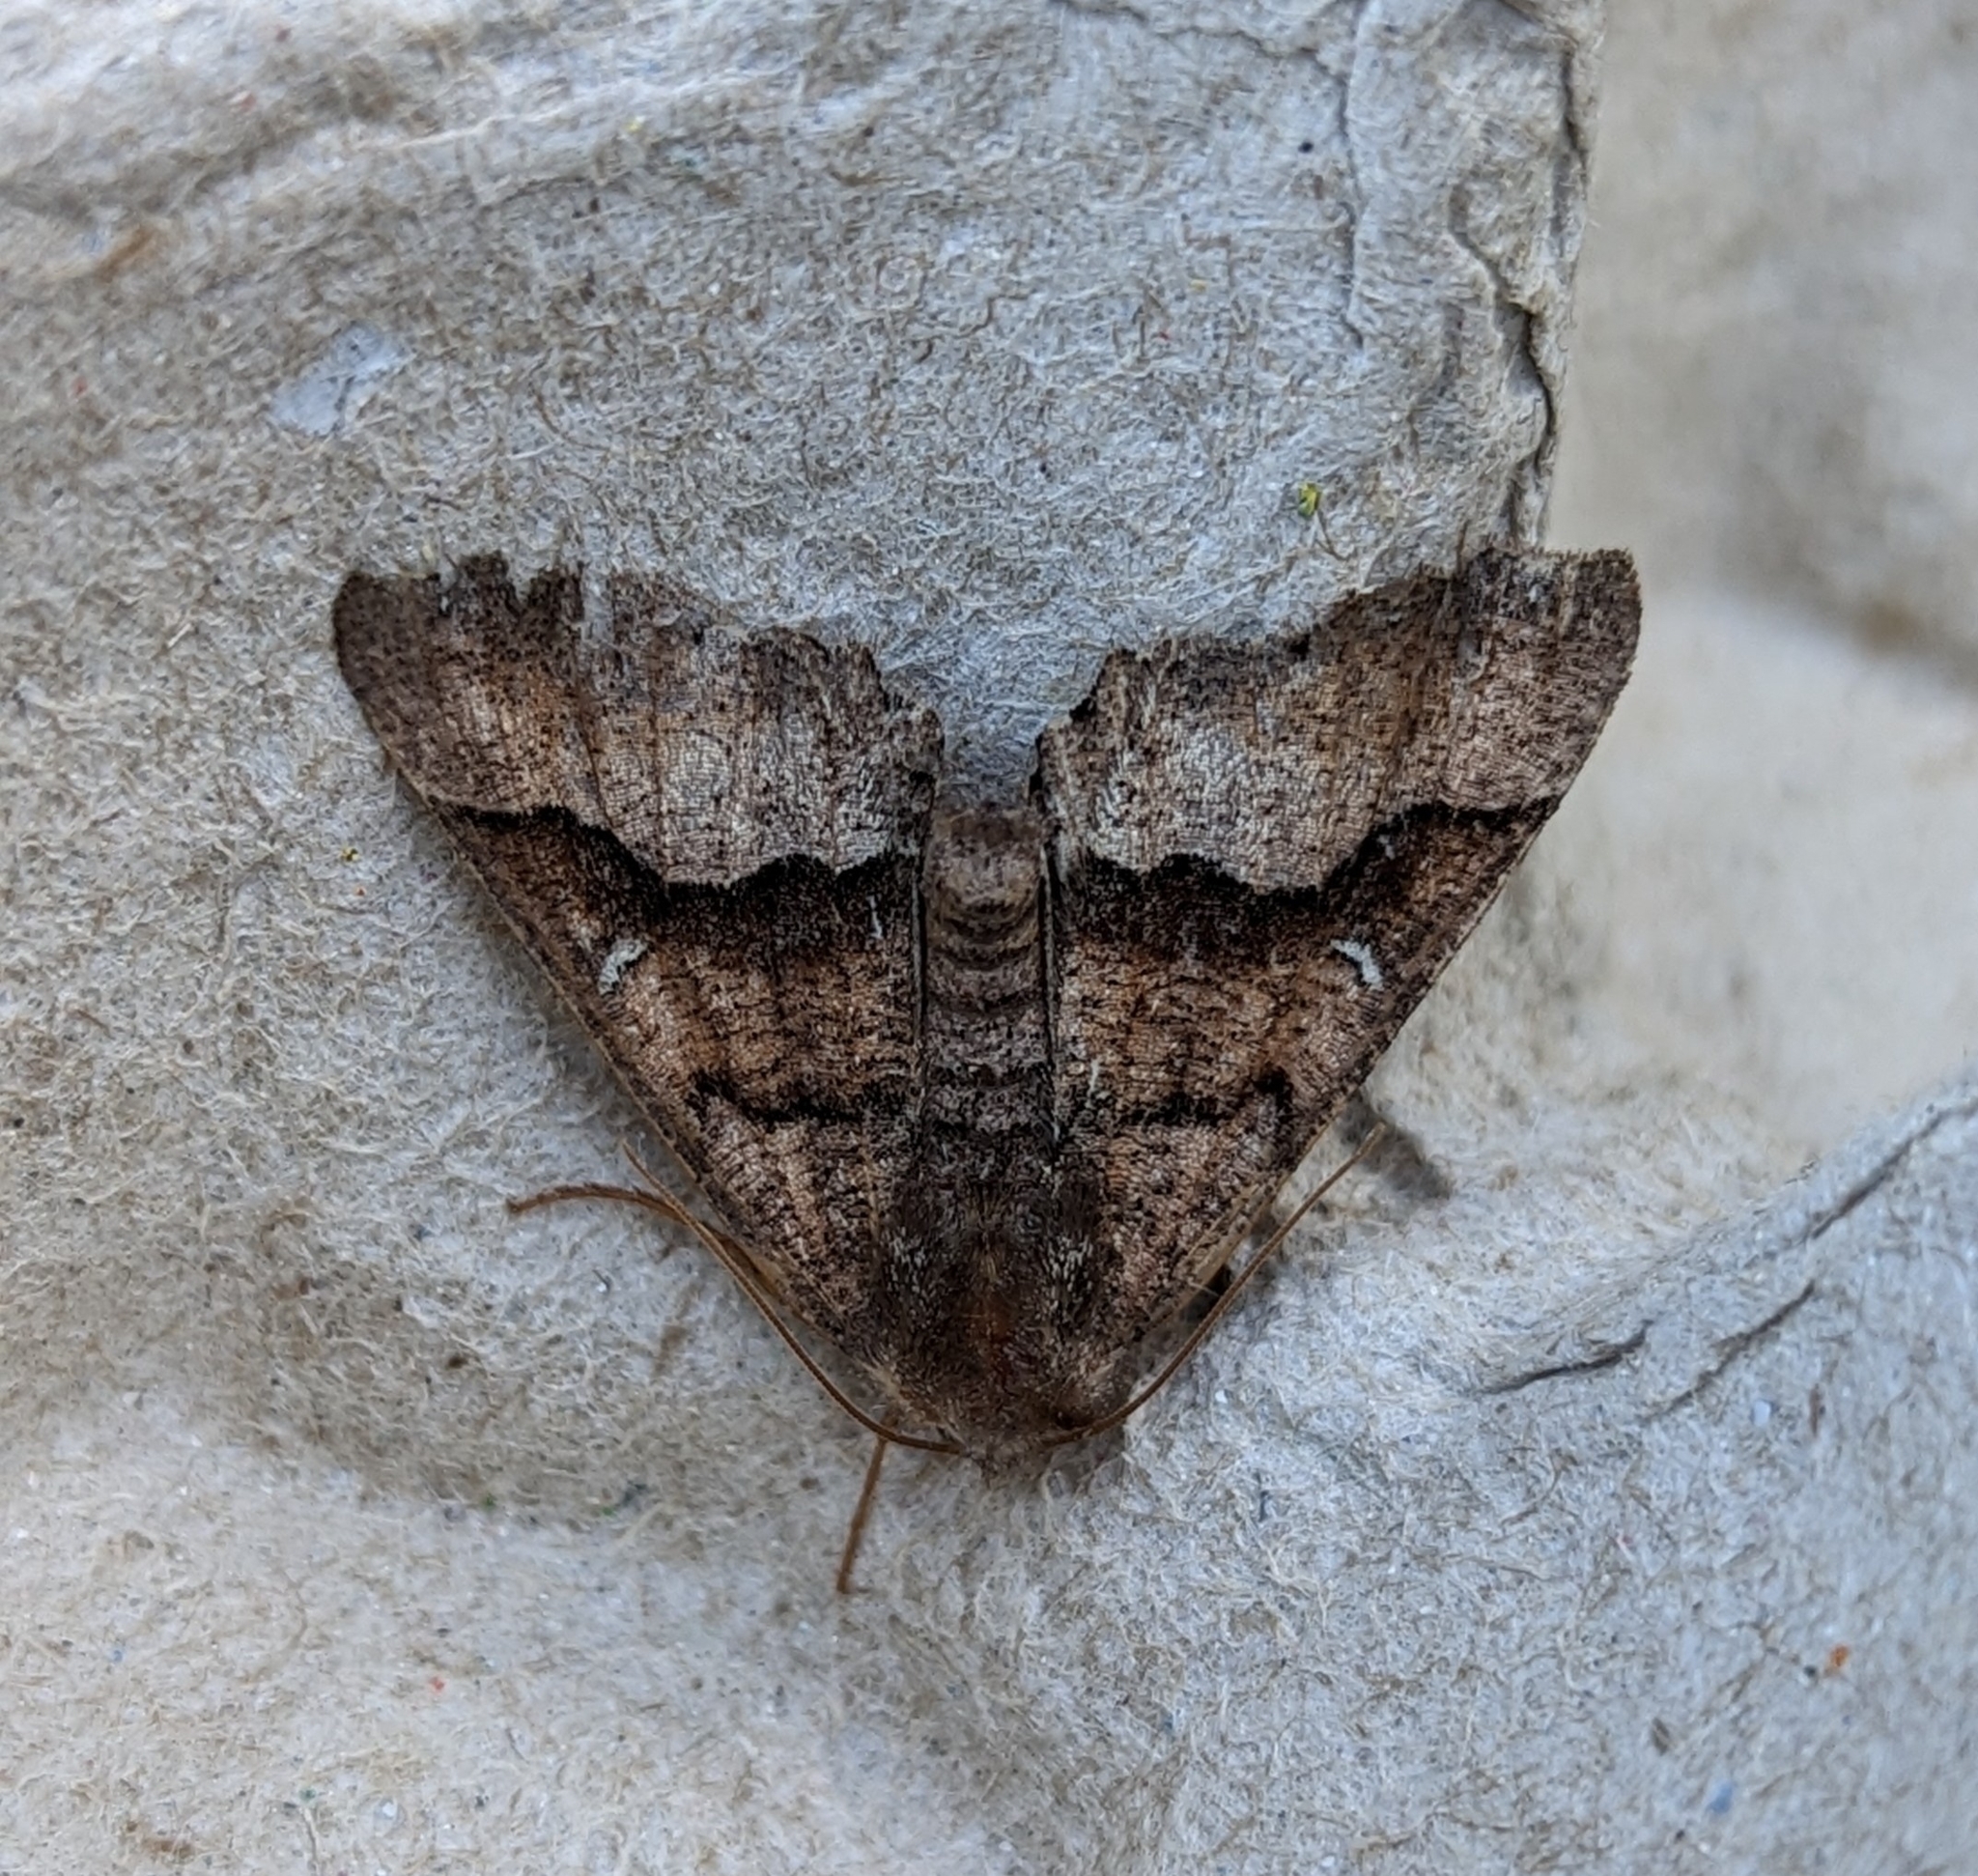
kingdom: Animalia
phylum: Arthropoda
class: Insecta
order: Lepidoptera
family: Geometridae
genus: Pero
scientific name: Pero behrensaria
